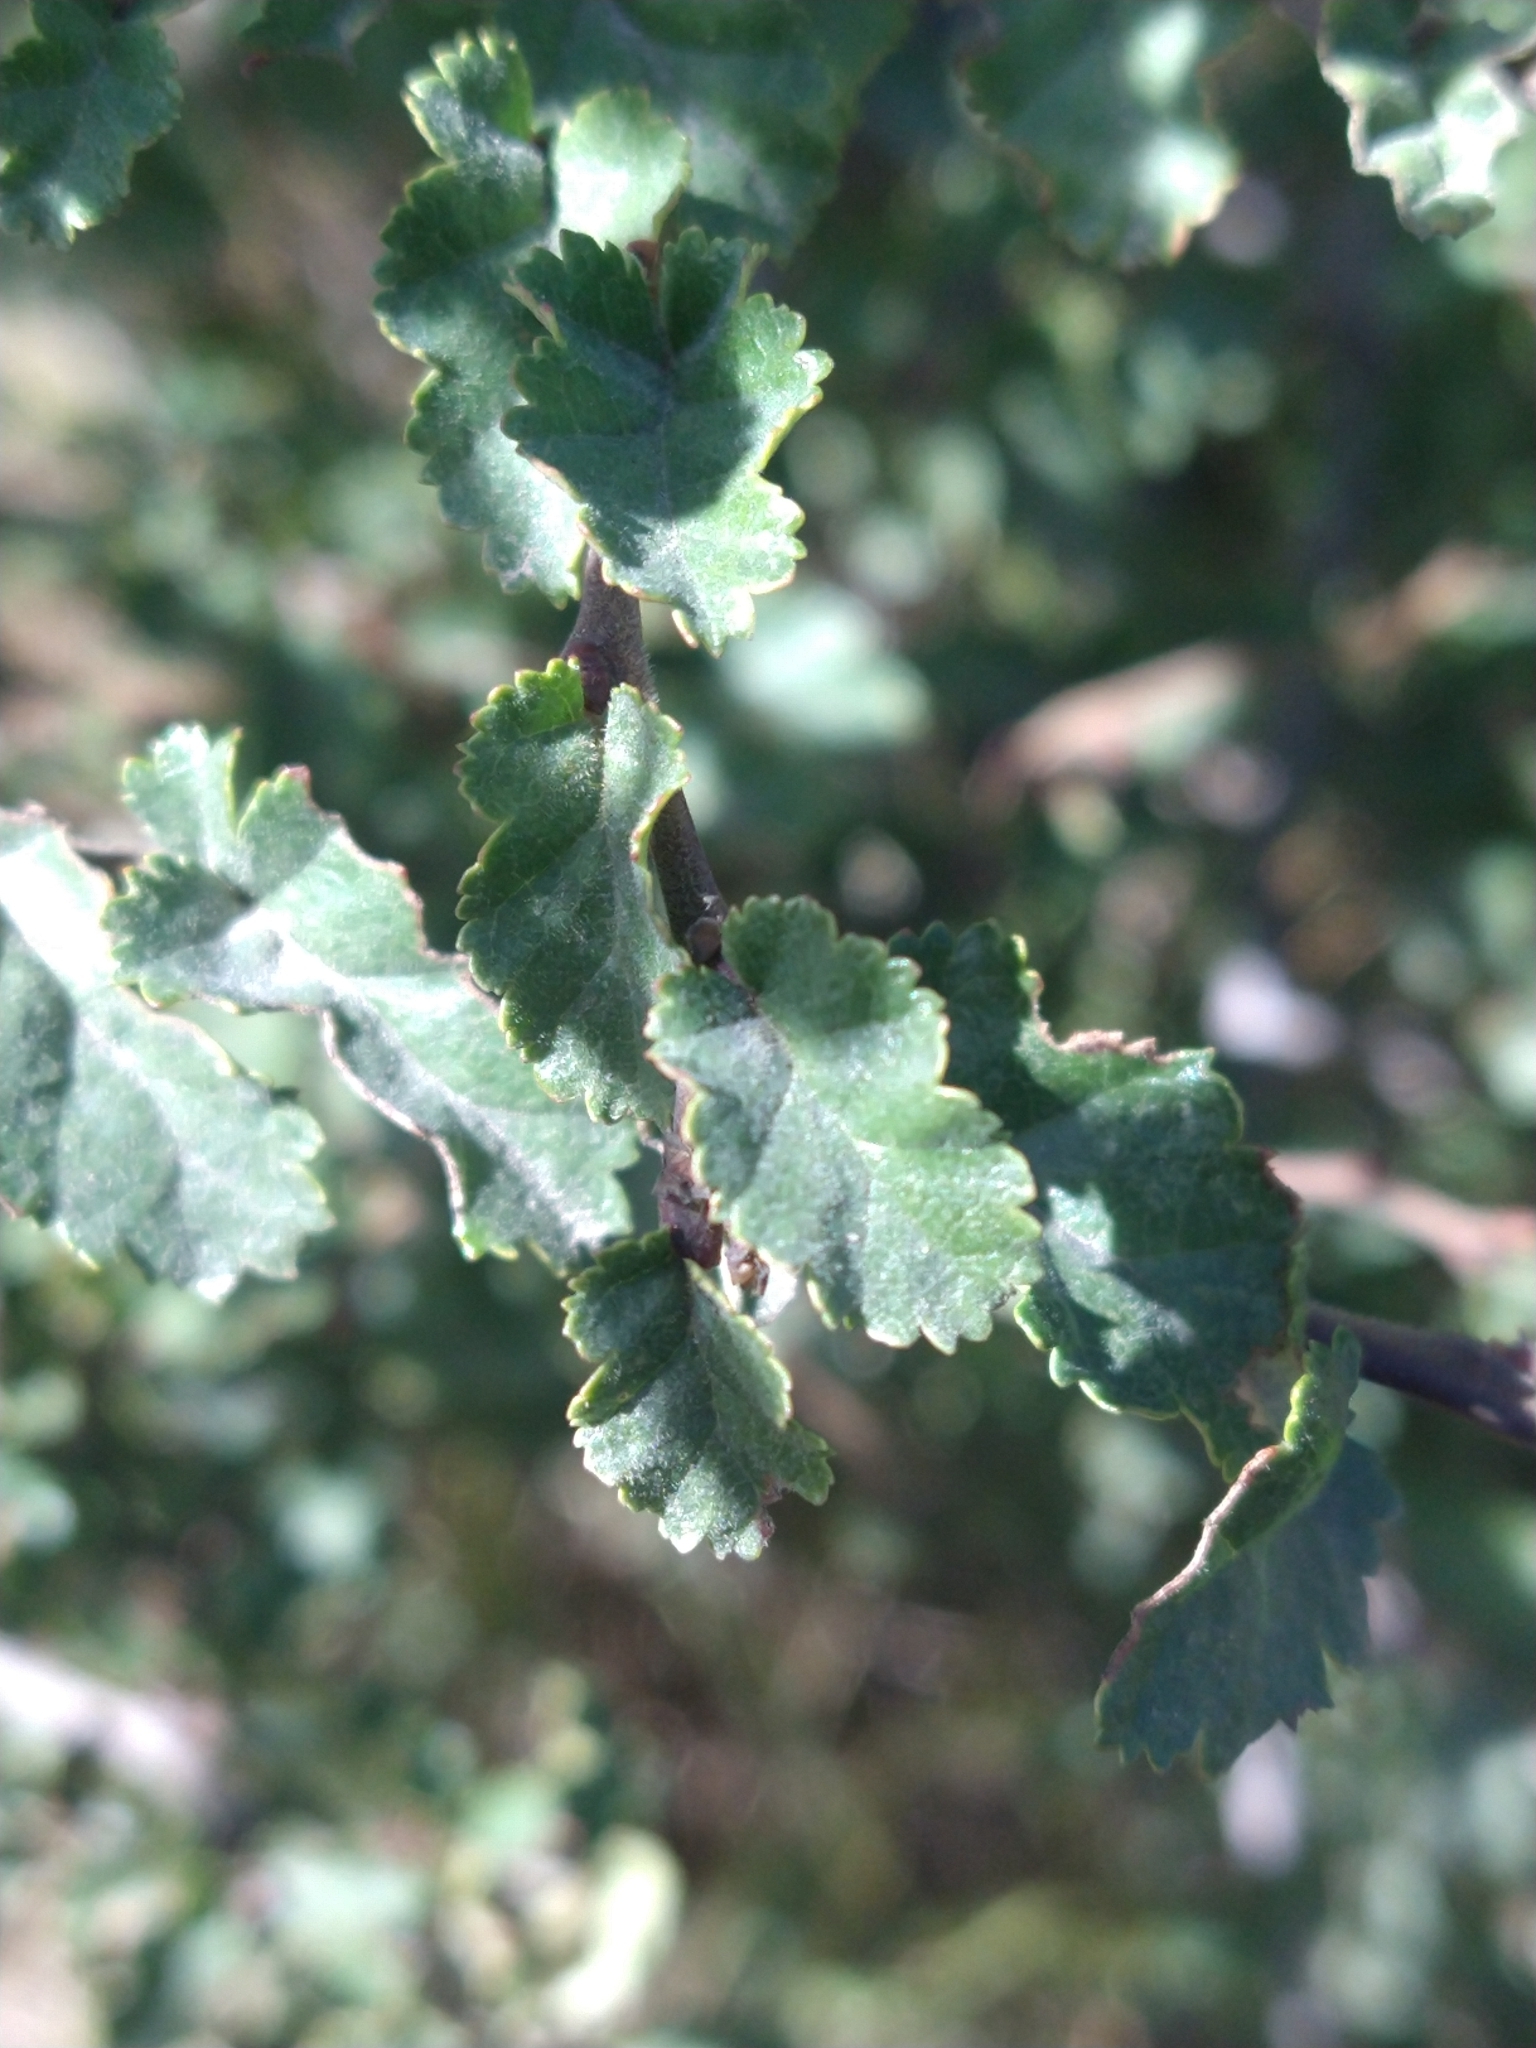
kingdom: Plantae
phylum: Tracheophyta
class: Magnoliopsida
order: Fagales
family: Nothofagaceae
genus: Nothofagus
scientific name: Nothofagus antarctica
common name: Antarctic beech
